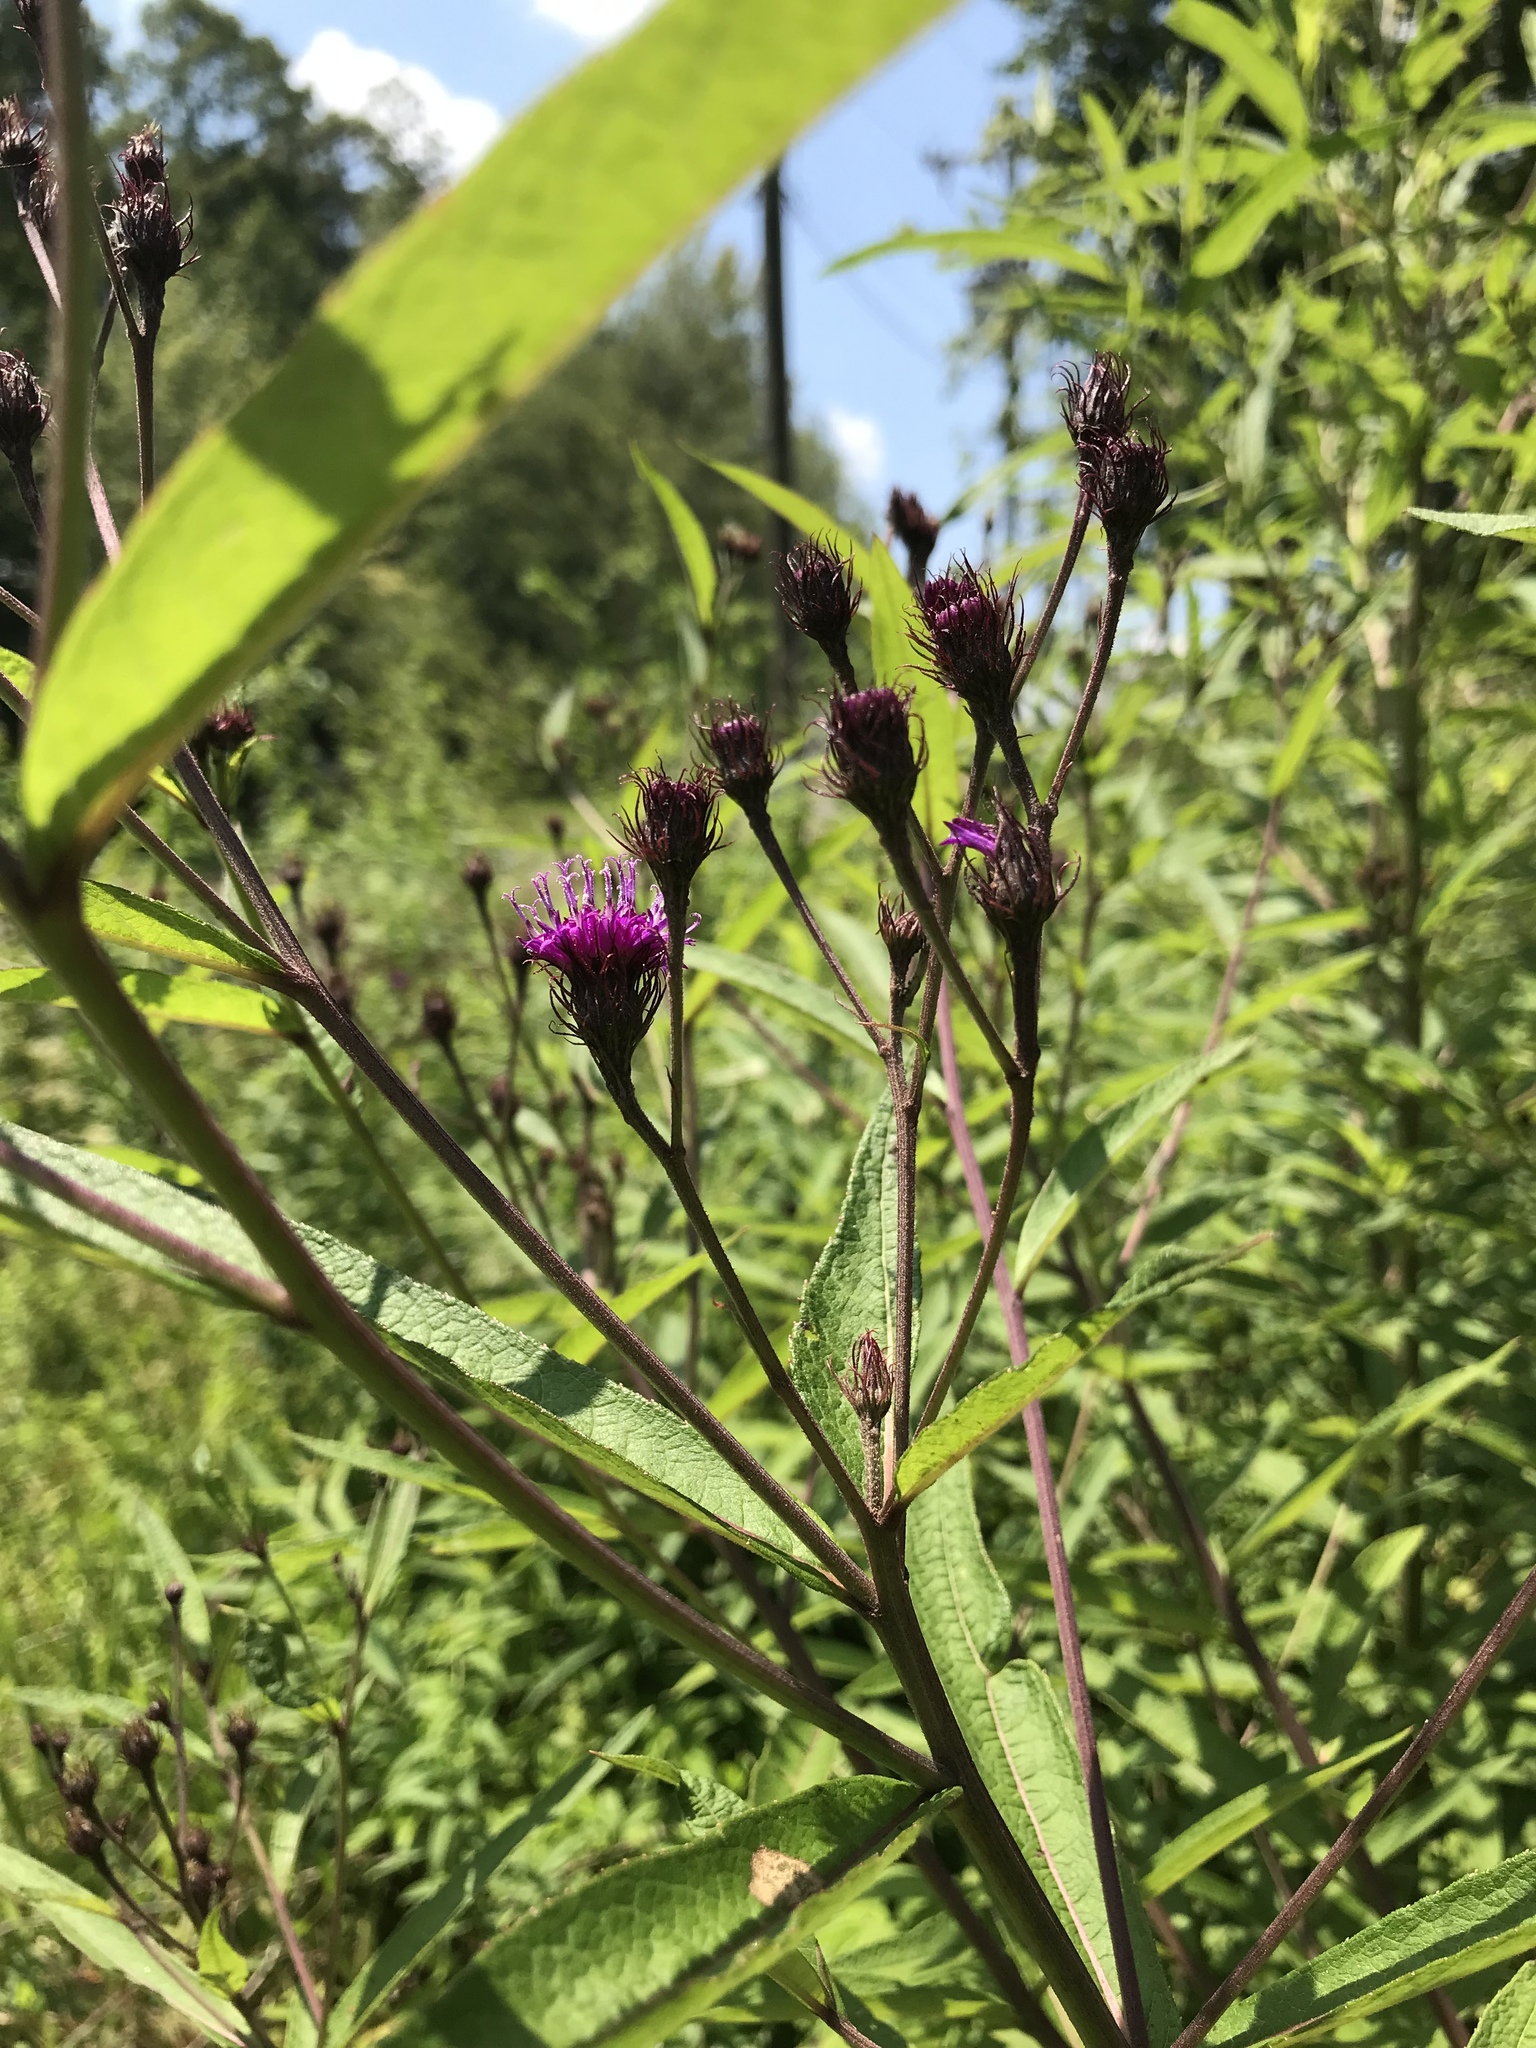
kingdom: Plantae
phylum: Tracheophyta
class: Magnoliopsida
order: Asterales
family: Asteraceae
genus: Vernonia
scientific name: Vernonia noveboracensis
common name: New york ironweed
